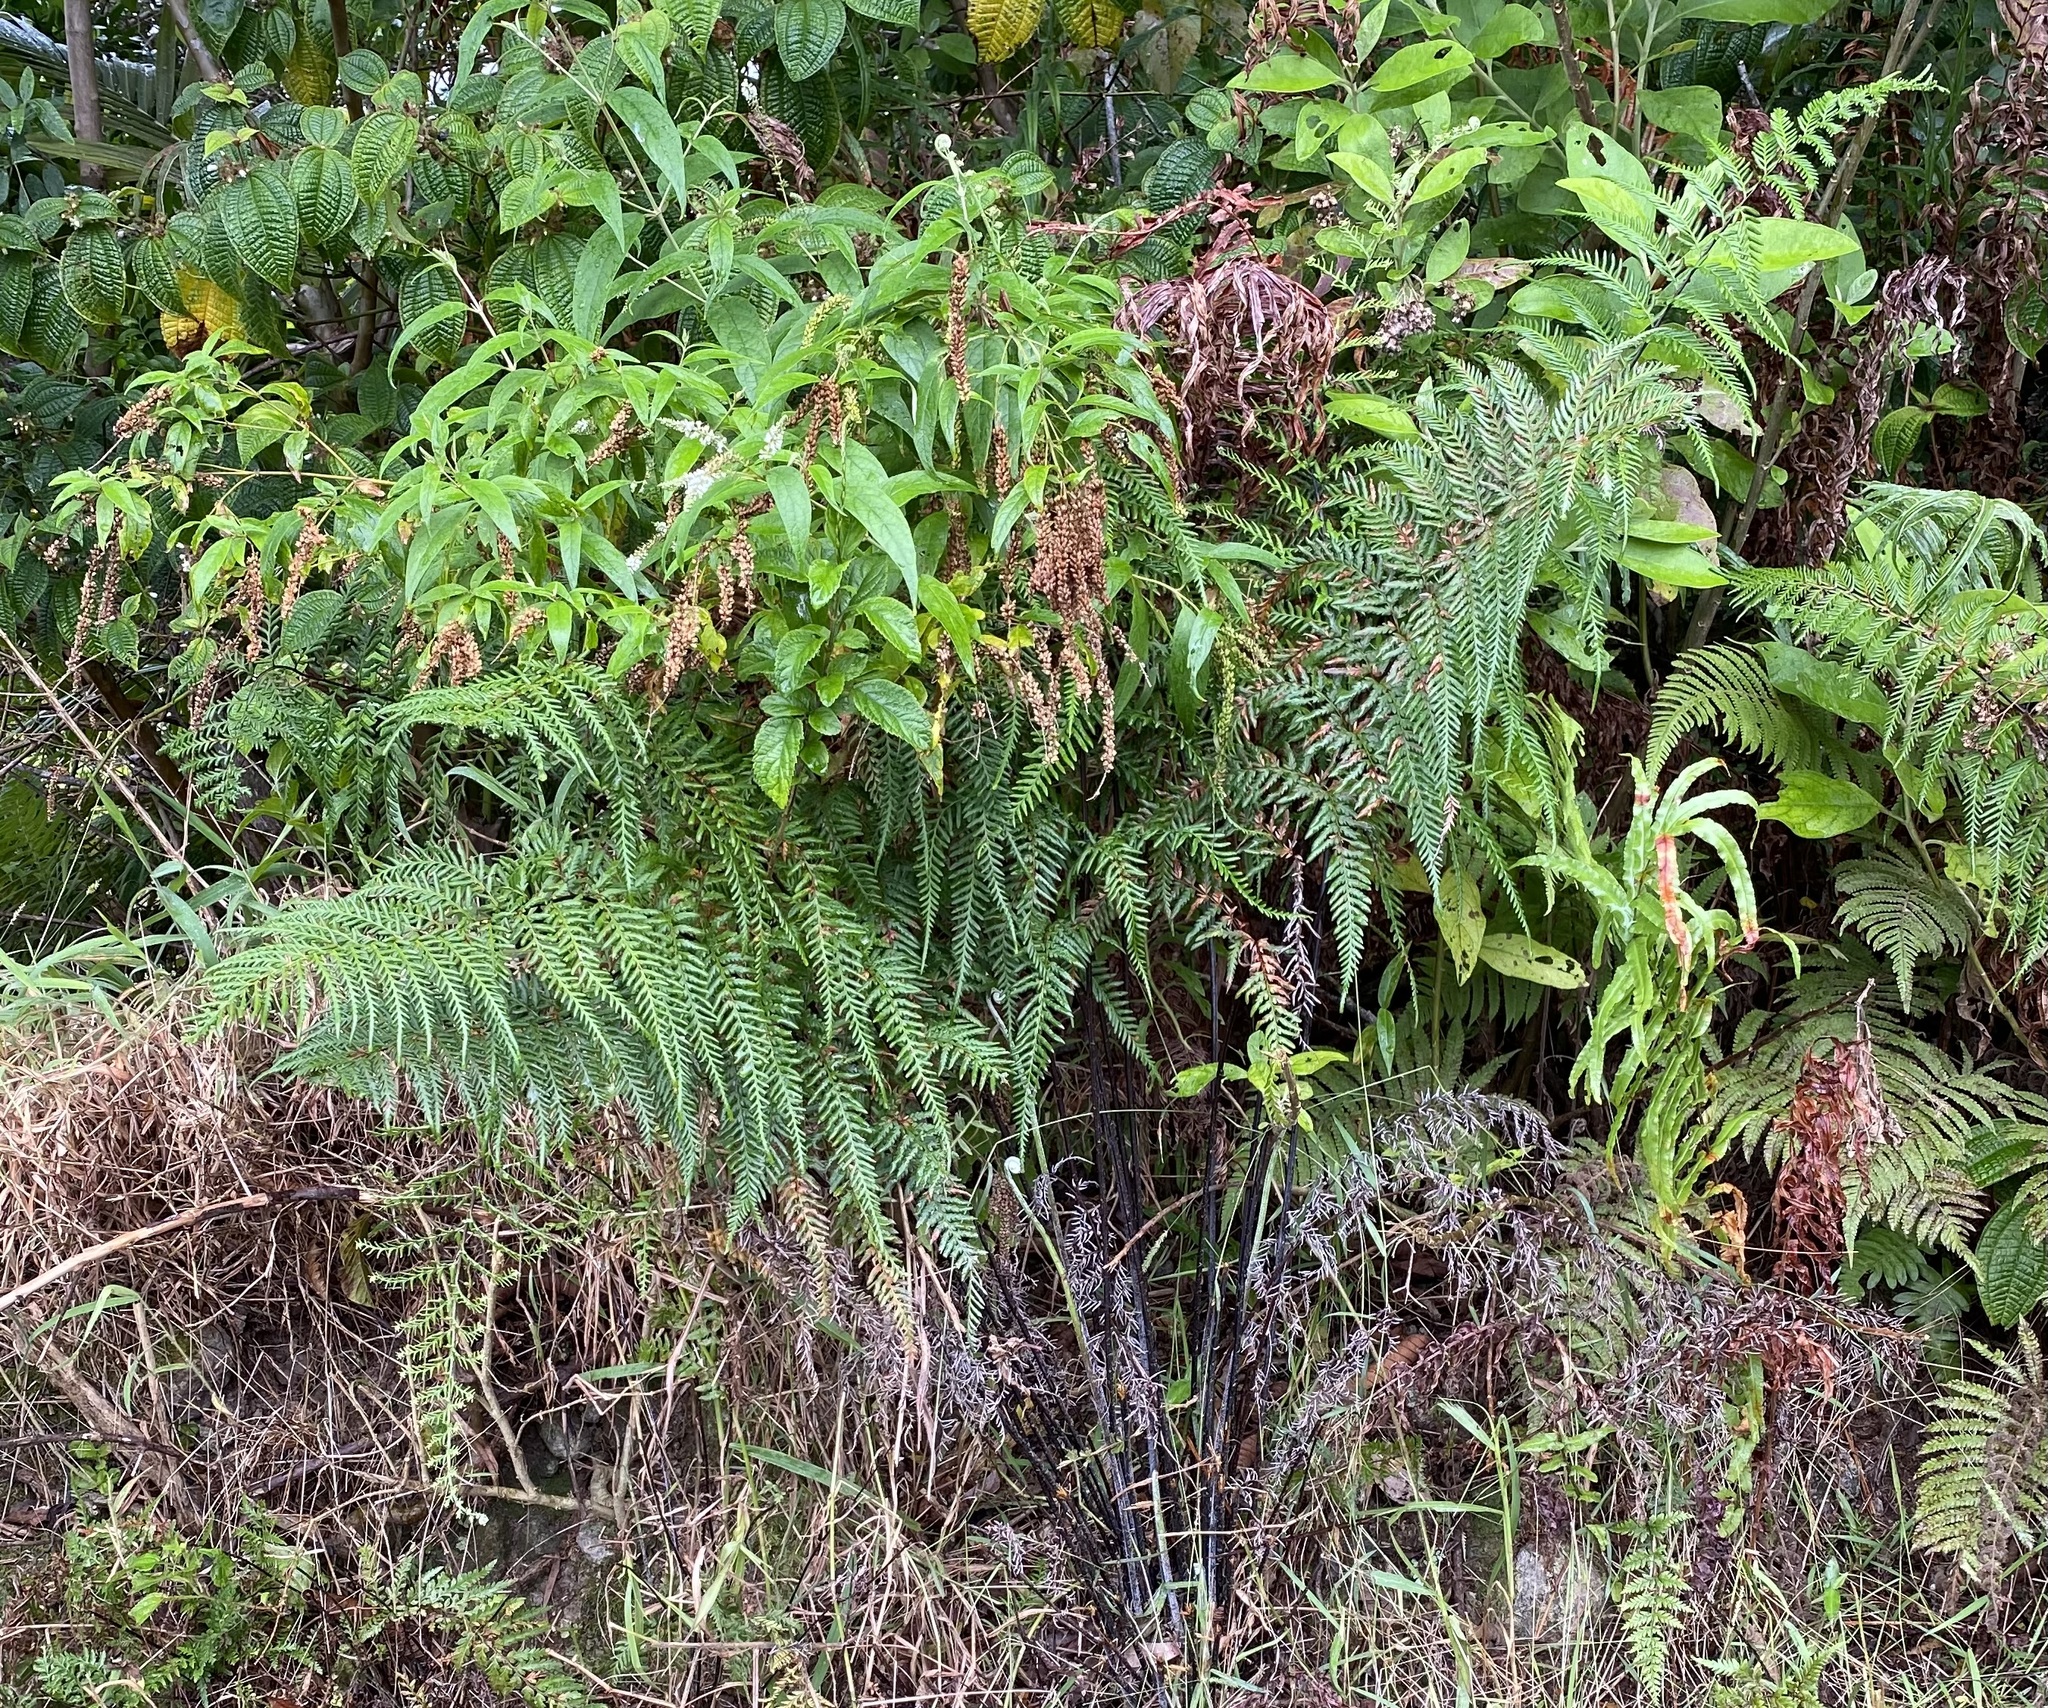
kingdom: Plantae
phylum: Tracheophyta
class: Polypodiopsida
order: Polypodiales
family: Pteridaceae
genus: Pityrogramma
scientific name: Pityrogramma calomelanos
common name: Dixie silverback fern
